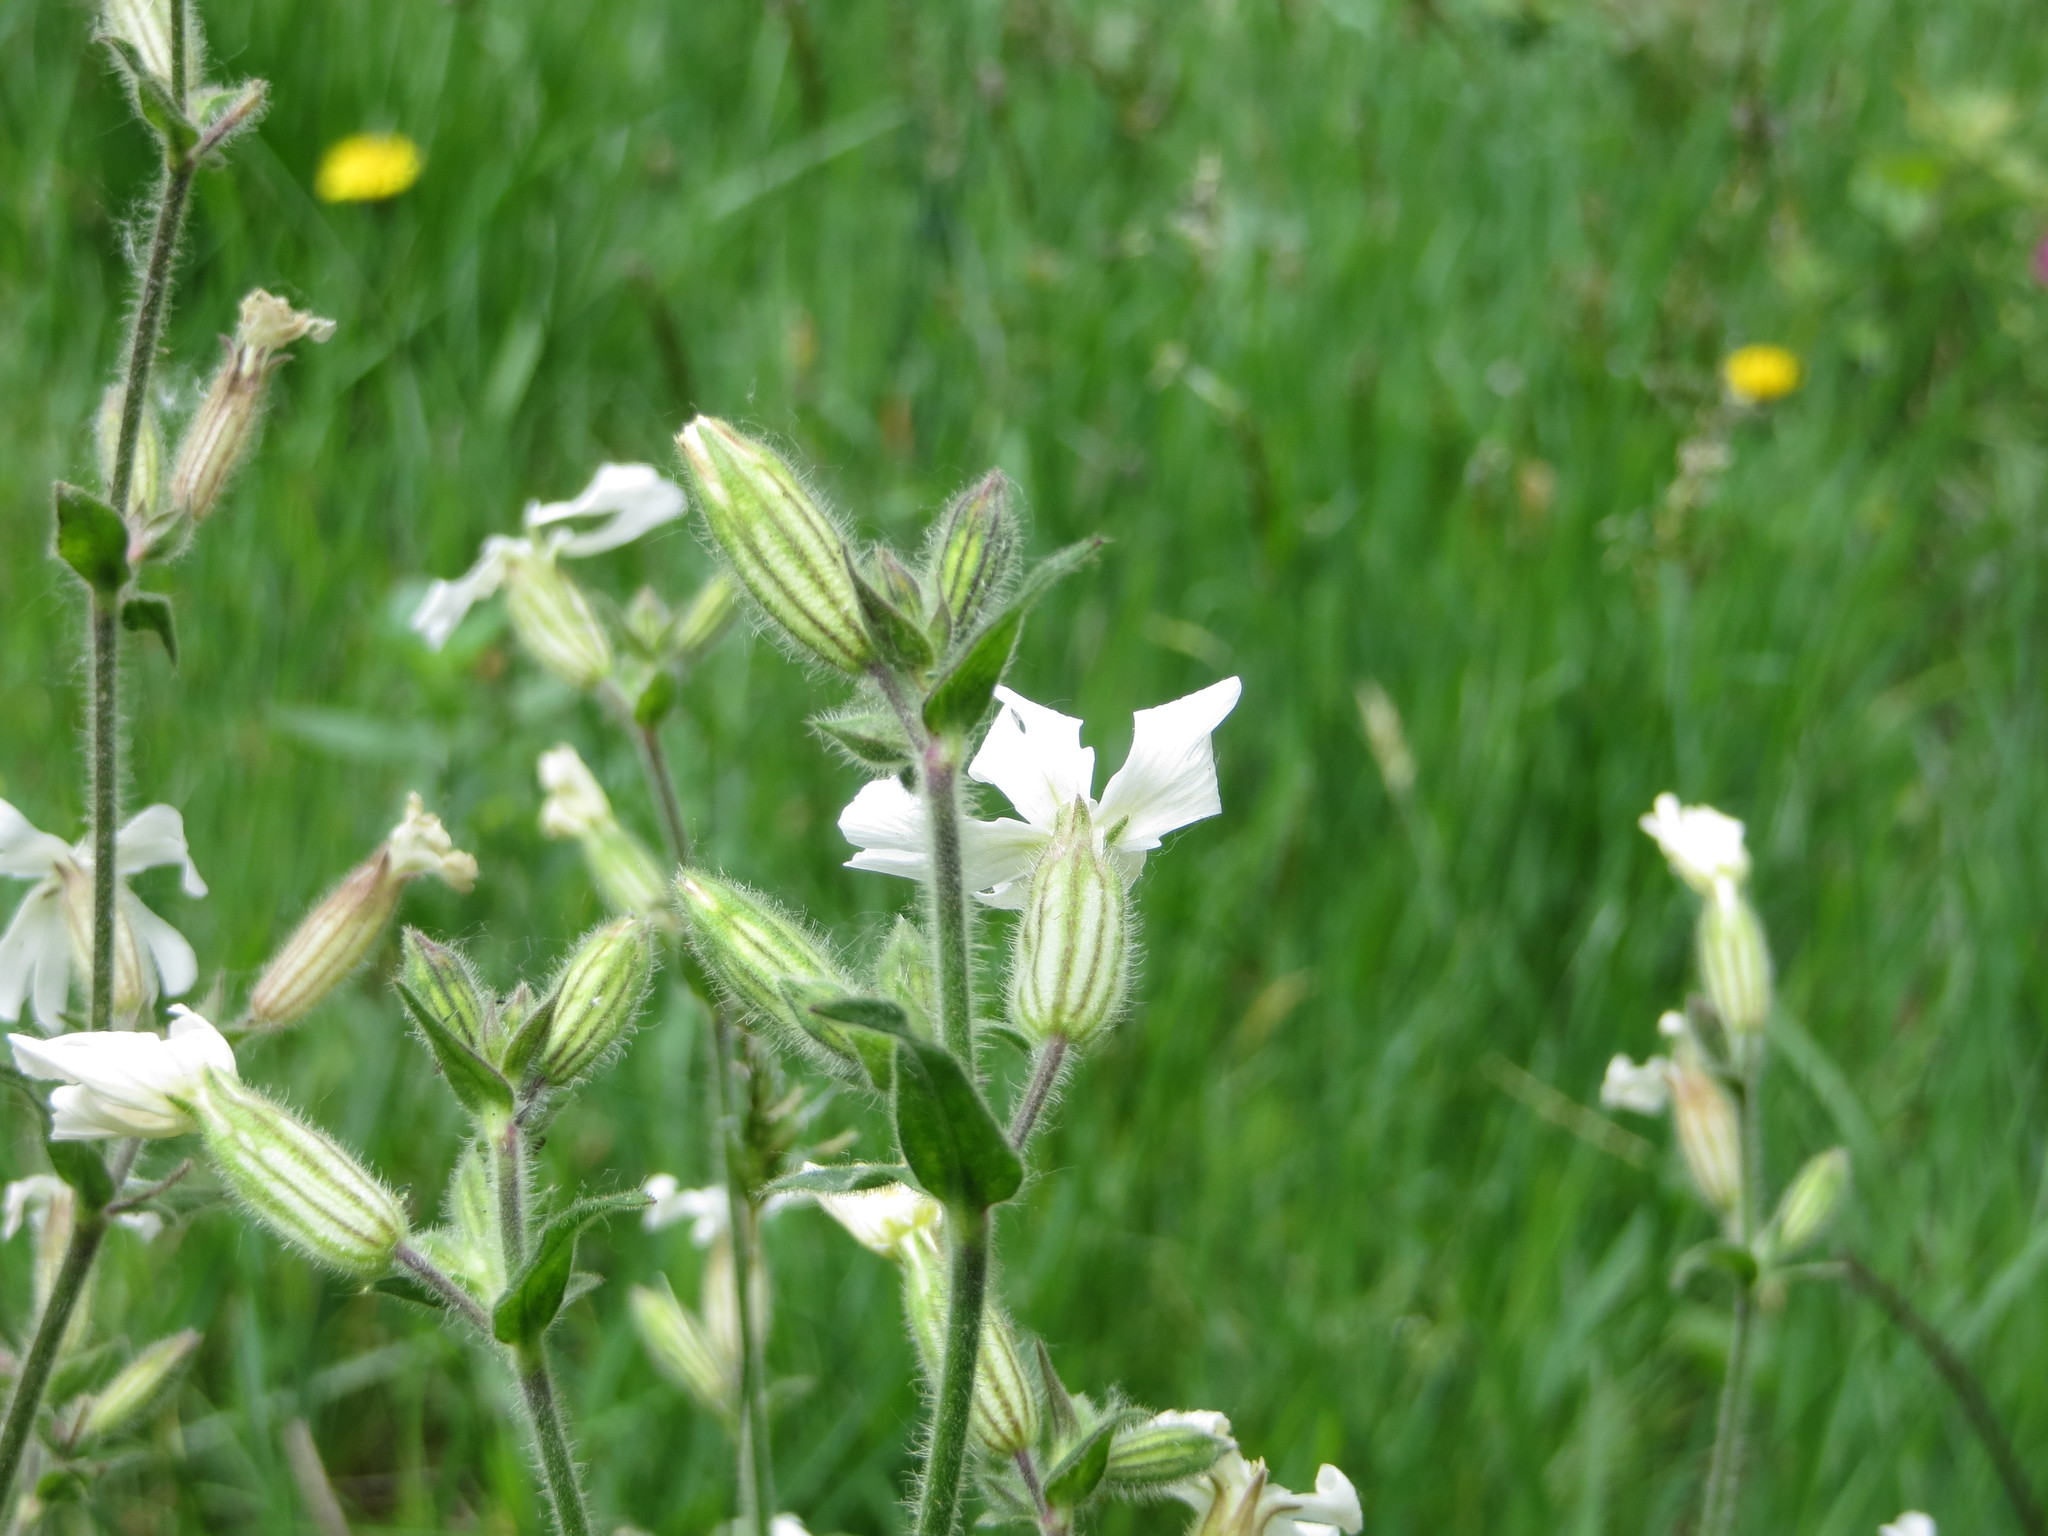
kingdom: Plantae
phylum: Tracheophyta
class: Magnoliopsida
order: Caryophyllales
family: Caryophyllaceae
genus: Silene
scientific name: Silene latifolia
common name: White campion
